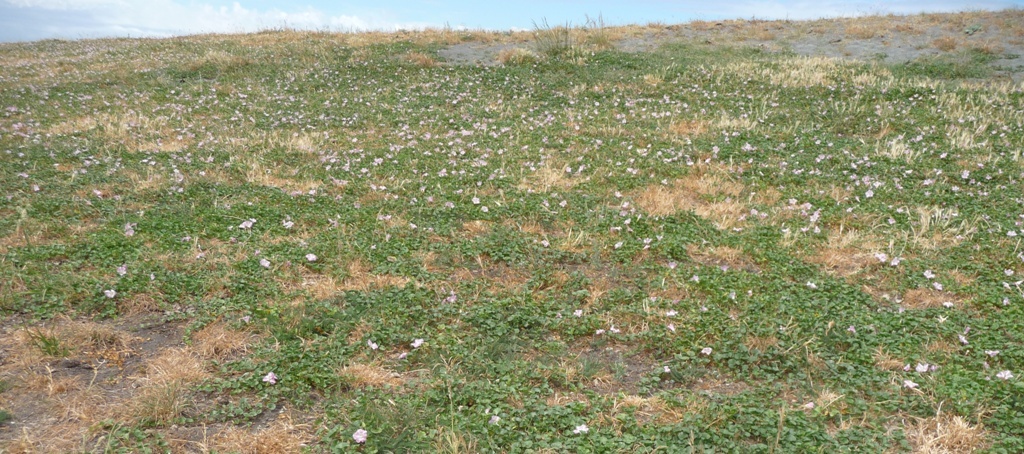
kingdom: Plantae
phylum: Tracheophyta
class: Magnoliopsida
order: Solanales
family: Convolvulaceae
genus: Calystegia
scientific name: Calystegia soldanella
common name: Sea bindweed
